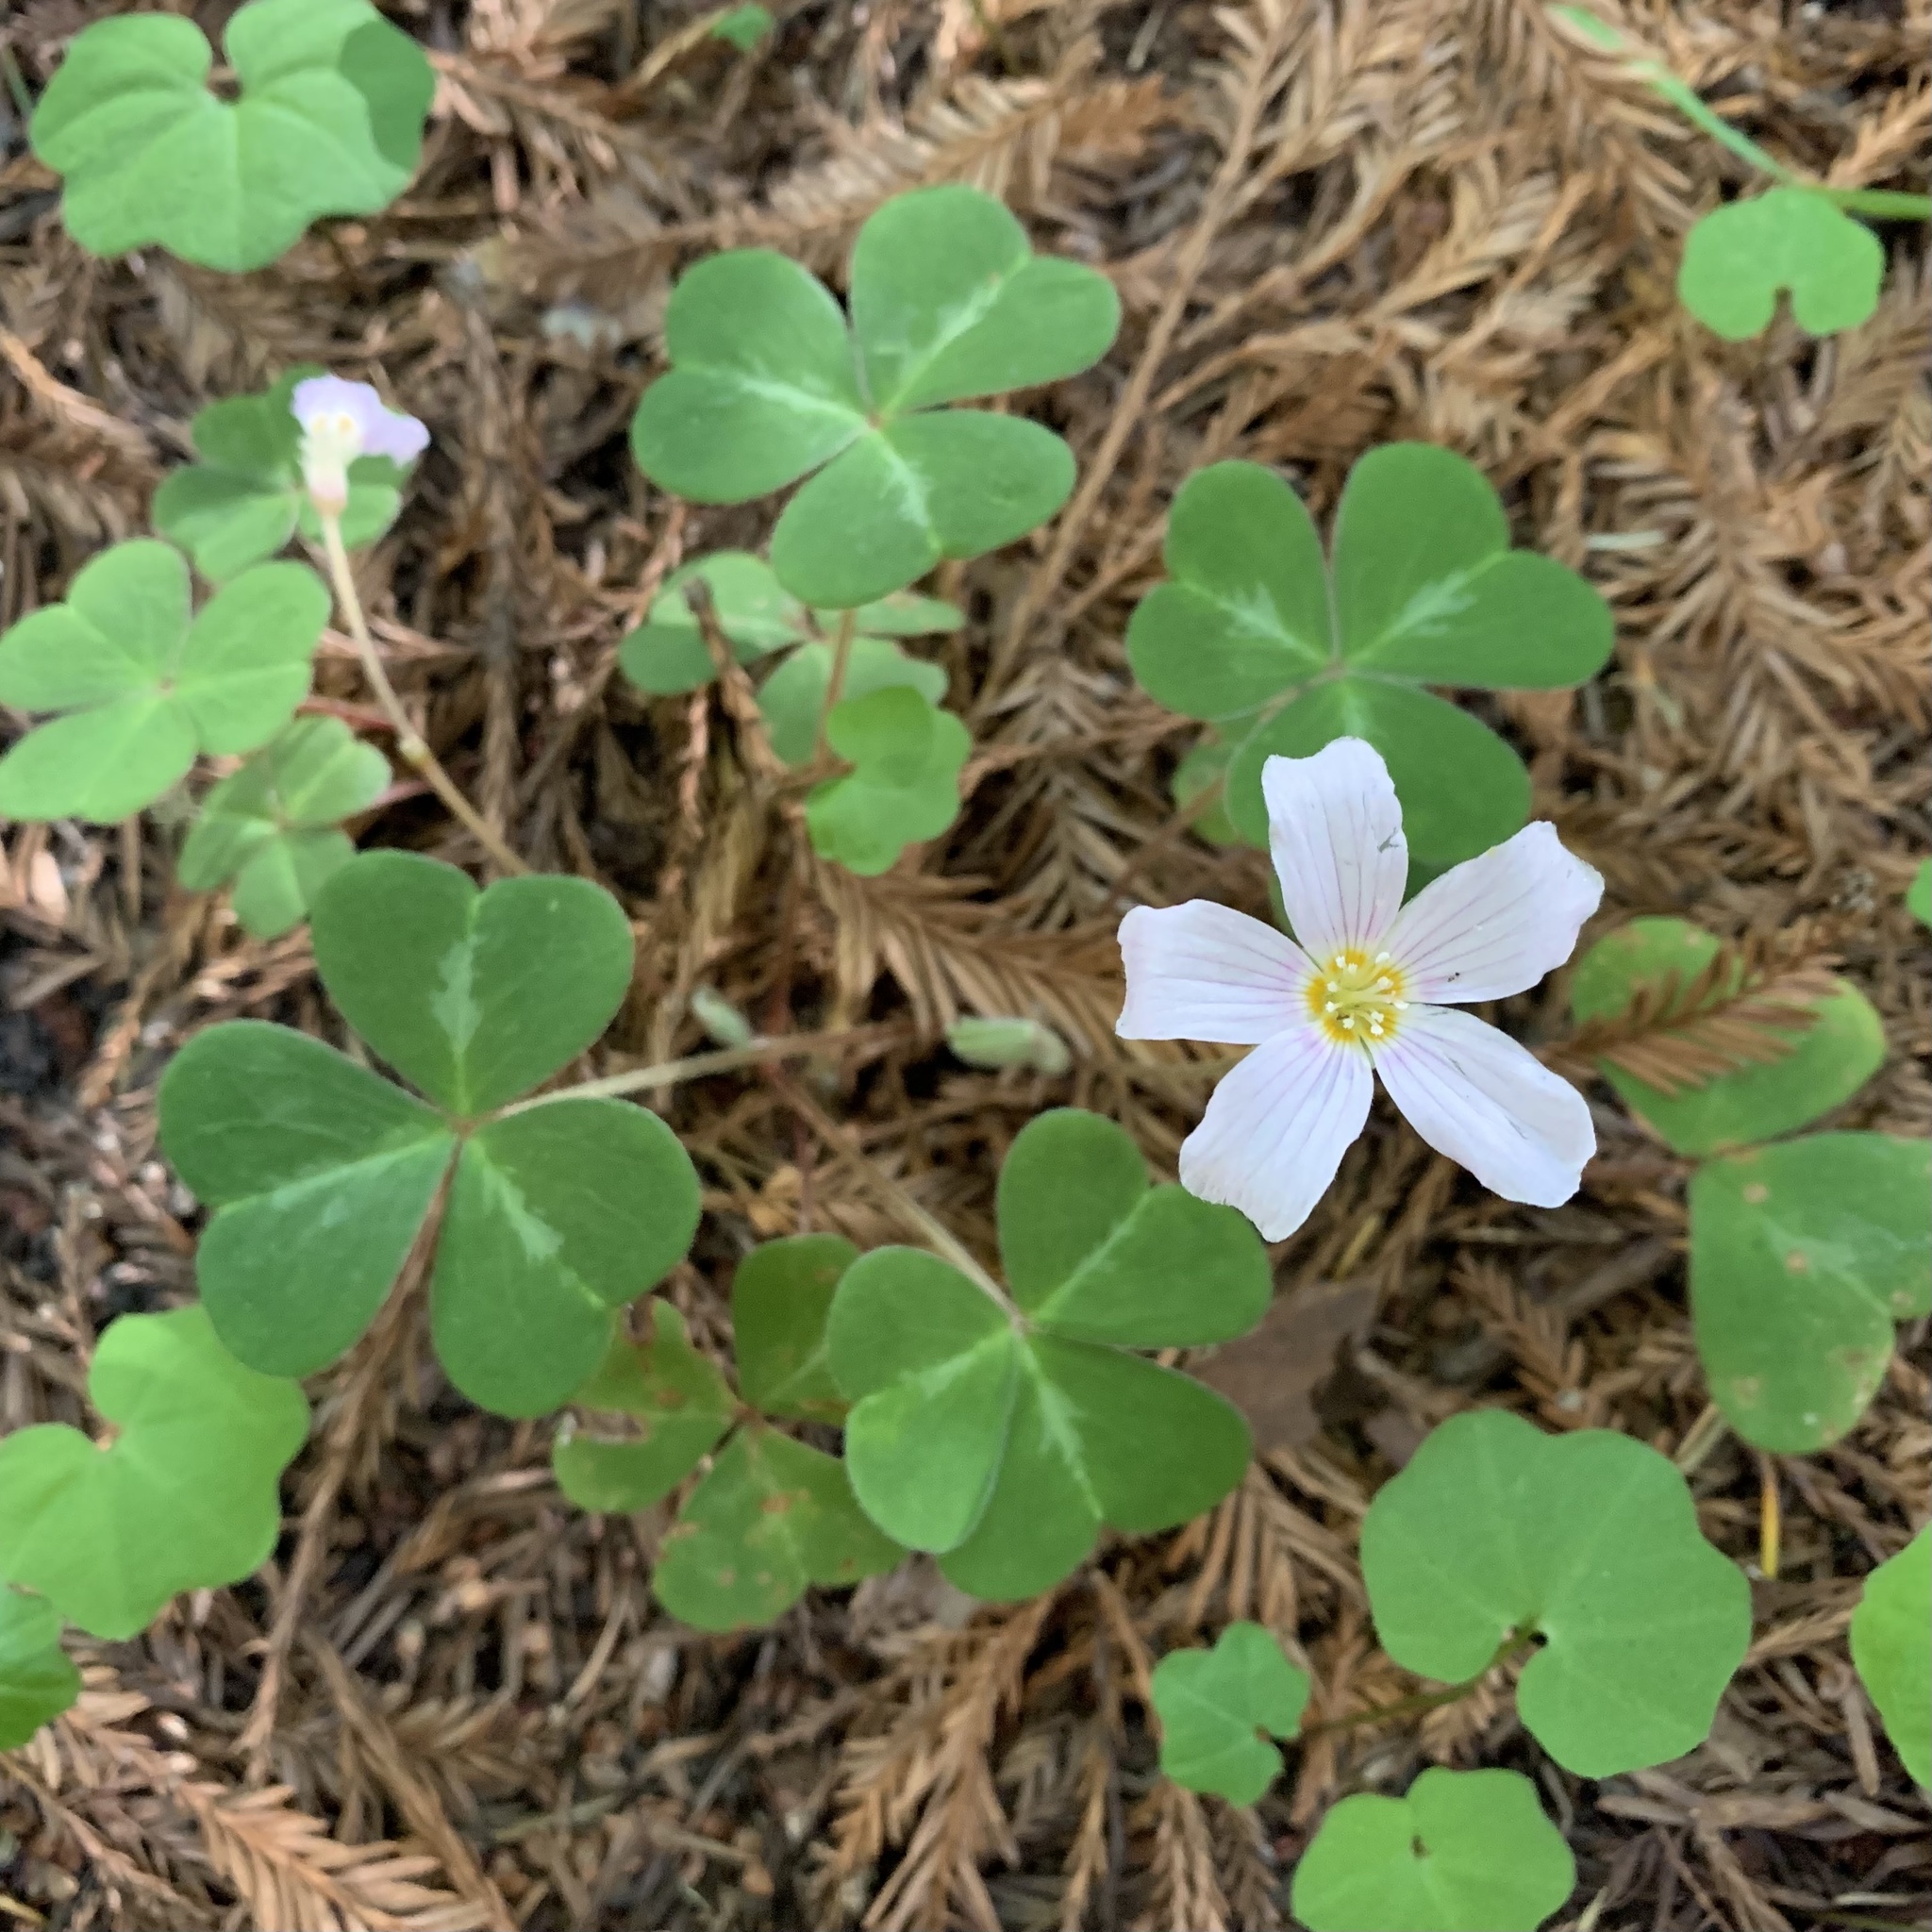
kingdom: Plantae
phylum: Tracheophyta
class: Magnoliopsida
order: Oxalidales
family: Oxalidaceae
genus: Oxalis
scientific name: Oxalis oregana
